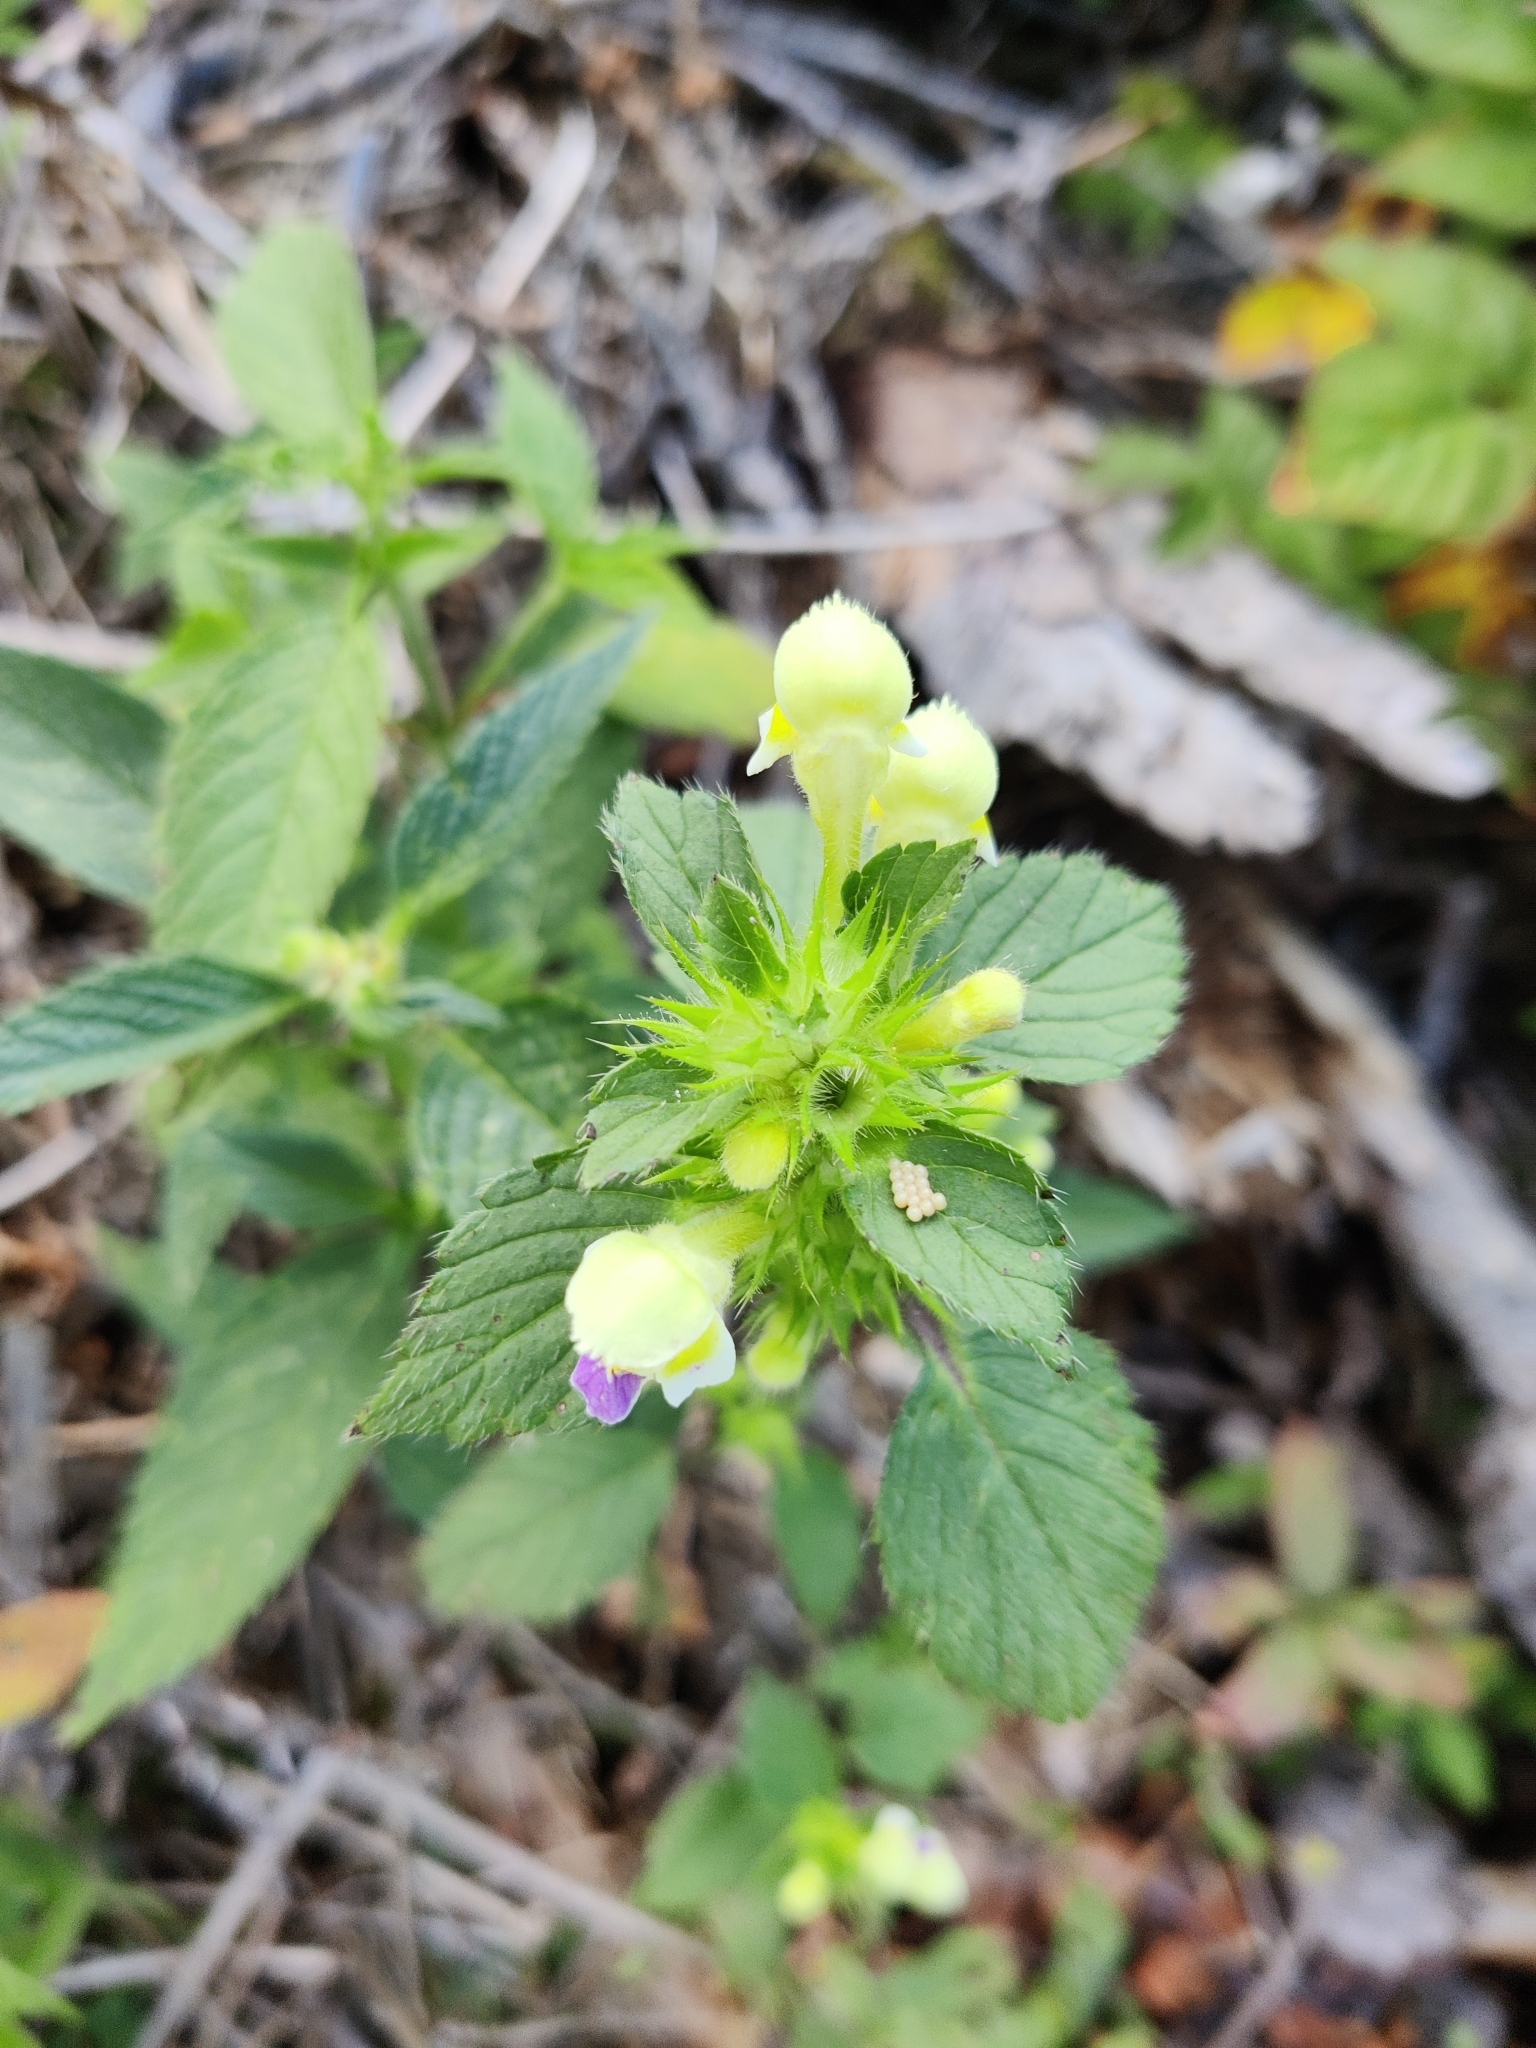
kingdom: Plantae
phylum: Tracheophyta
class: Magnoliopsida
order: Lamiales
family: Lamiaceae
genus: Galeopsis
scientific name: Galeopsis speciosa
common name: Large-flowered hemp-nettle
